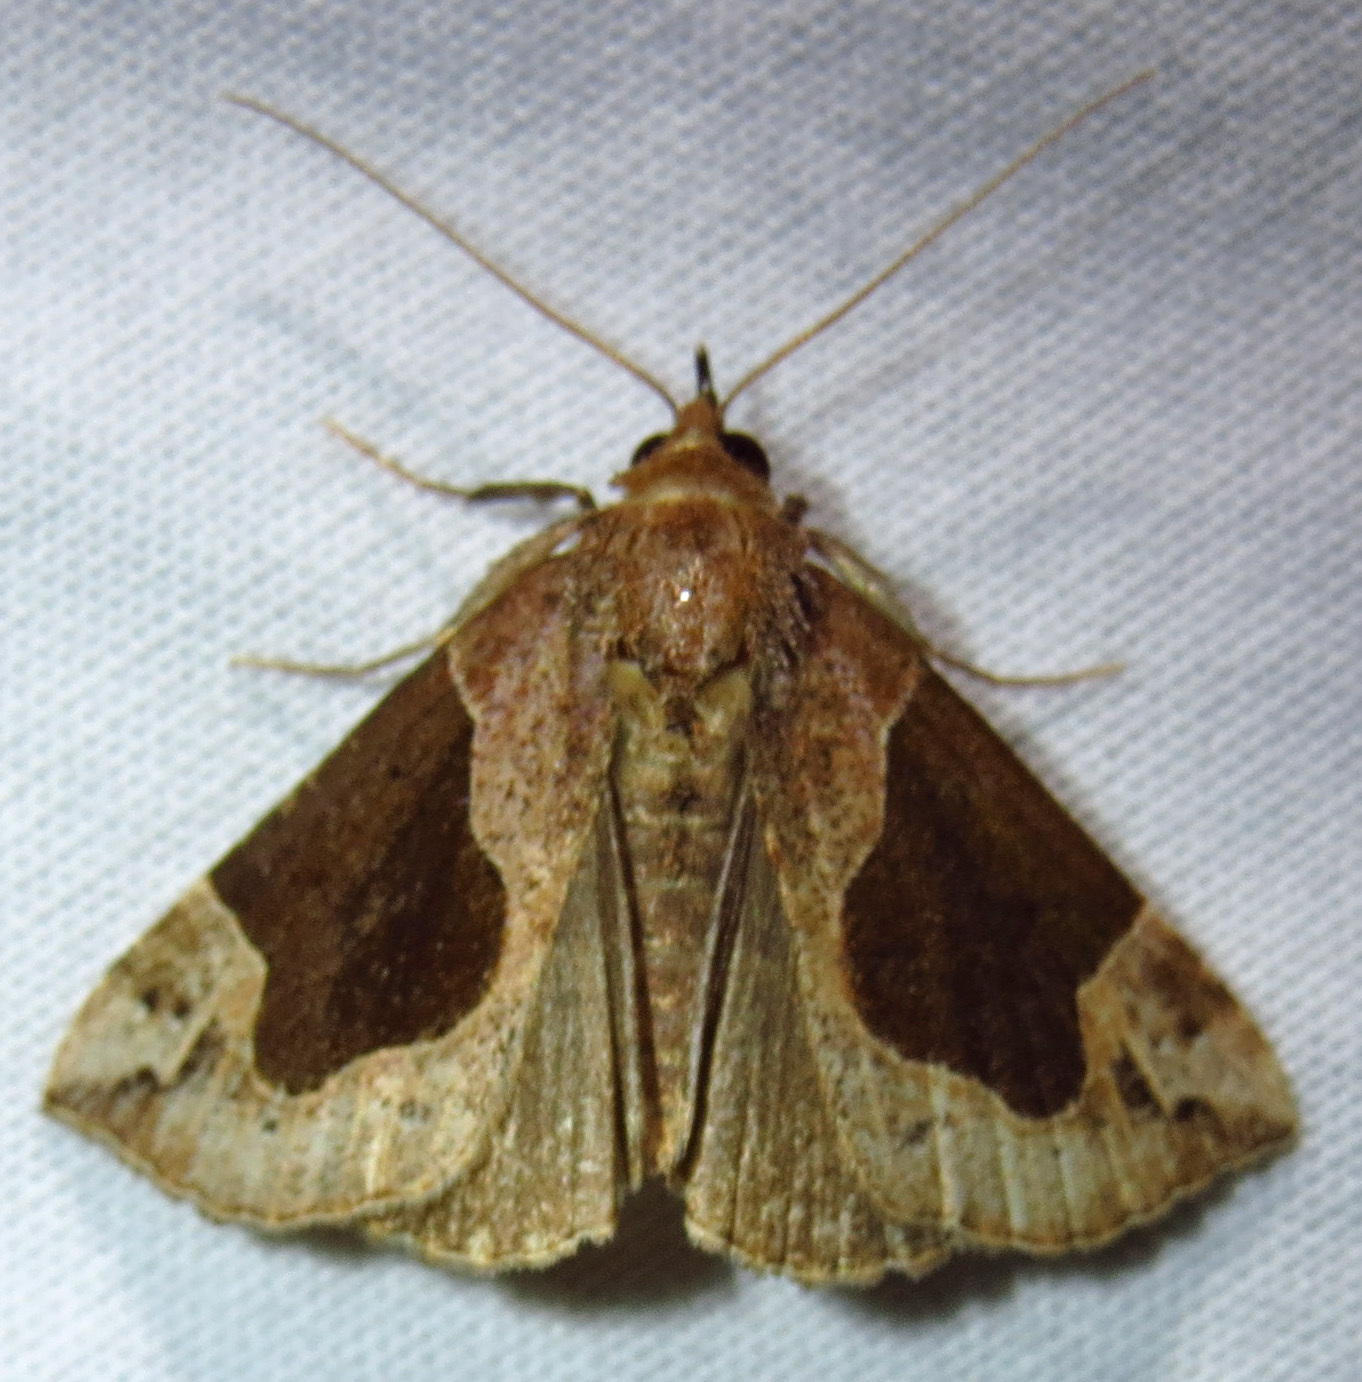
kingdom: Animalia
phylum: Arthropoda
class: Insecta
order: Lepidoptera
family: Erebidae
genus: Hypena
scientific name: Hypena manalis
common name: Flowing-line bomolocha moth
